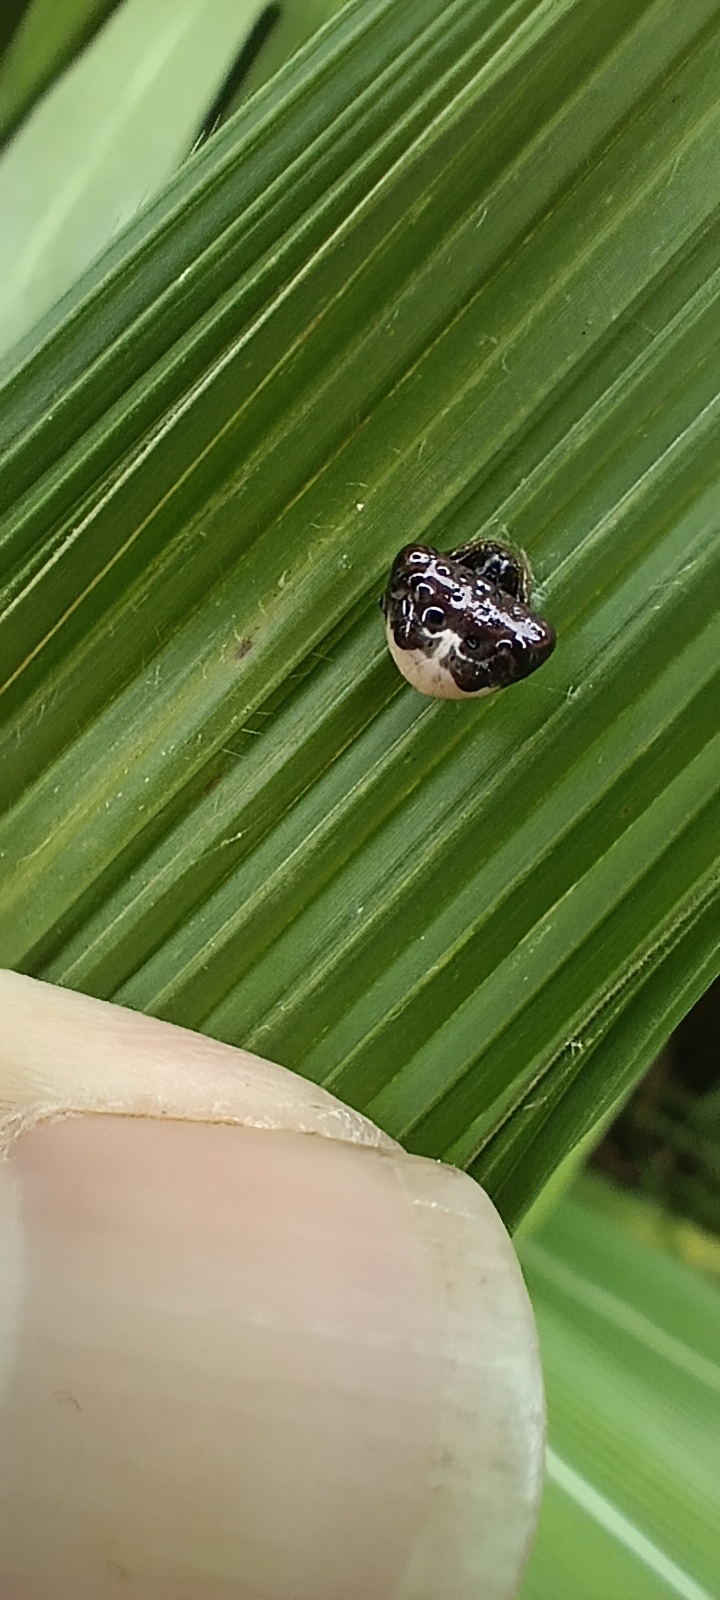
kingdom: Animalia
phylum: Arthropoda
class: Arachnida
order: Araneae
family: Araneidae
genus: Aethriscus
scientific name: Aethriscus olivaceus
